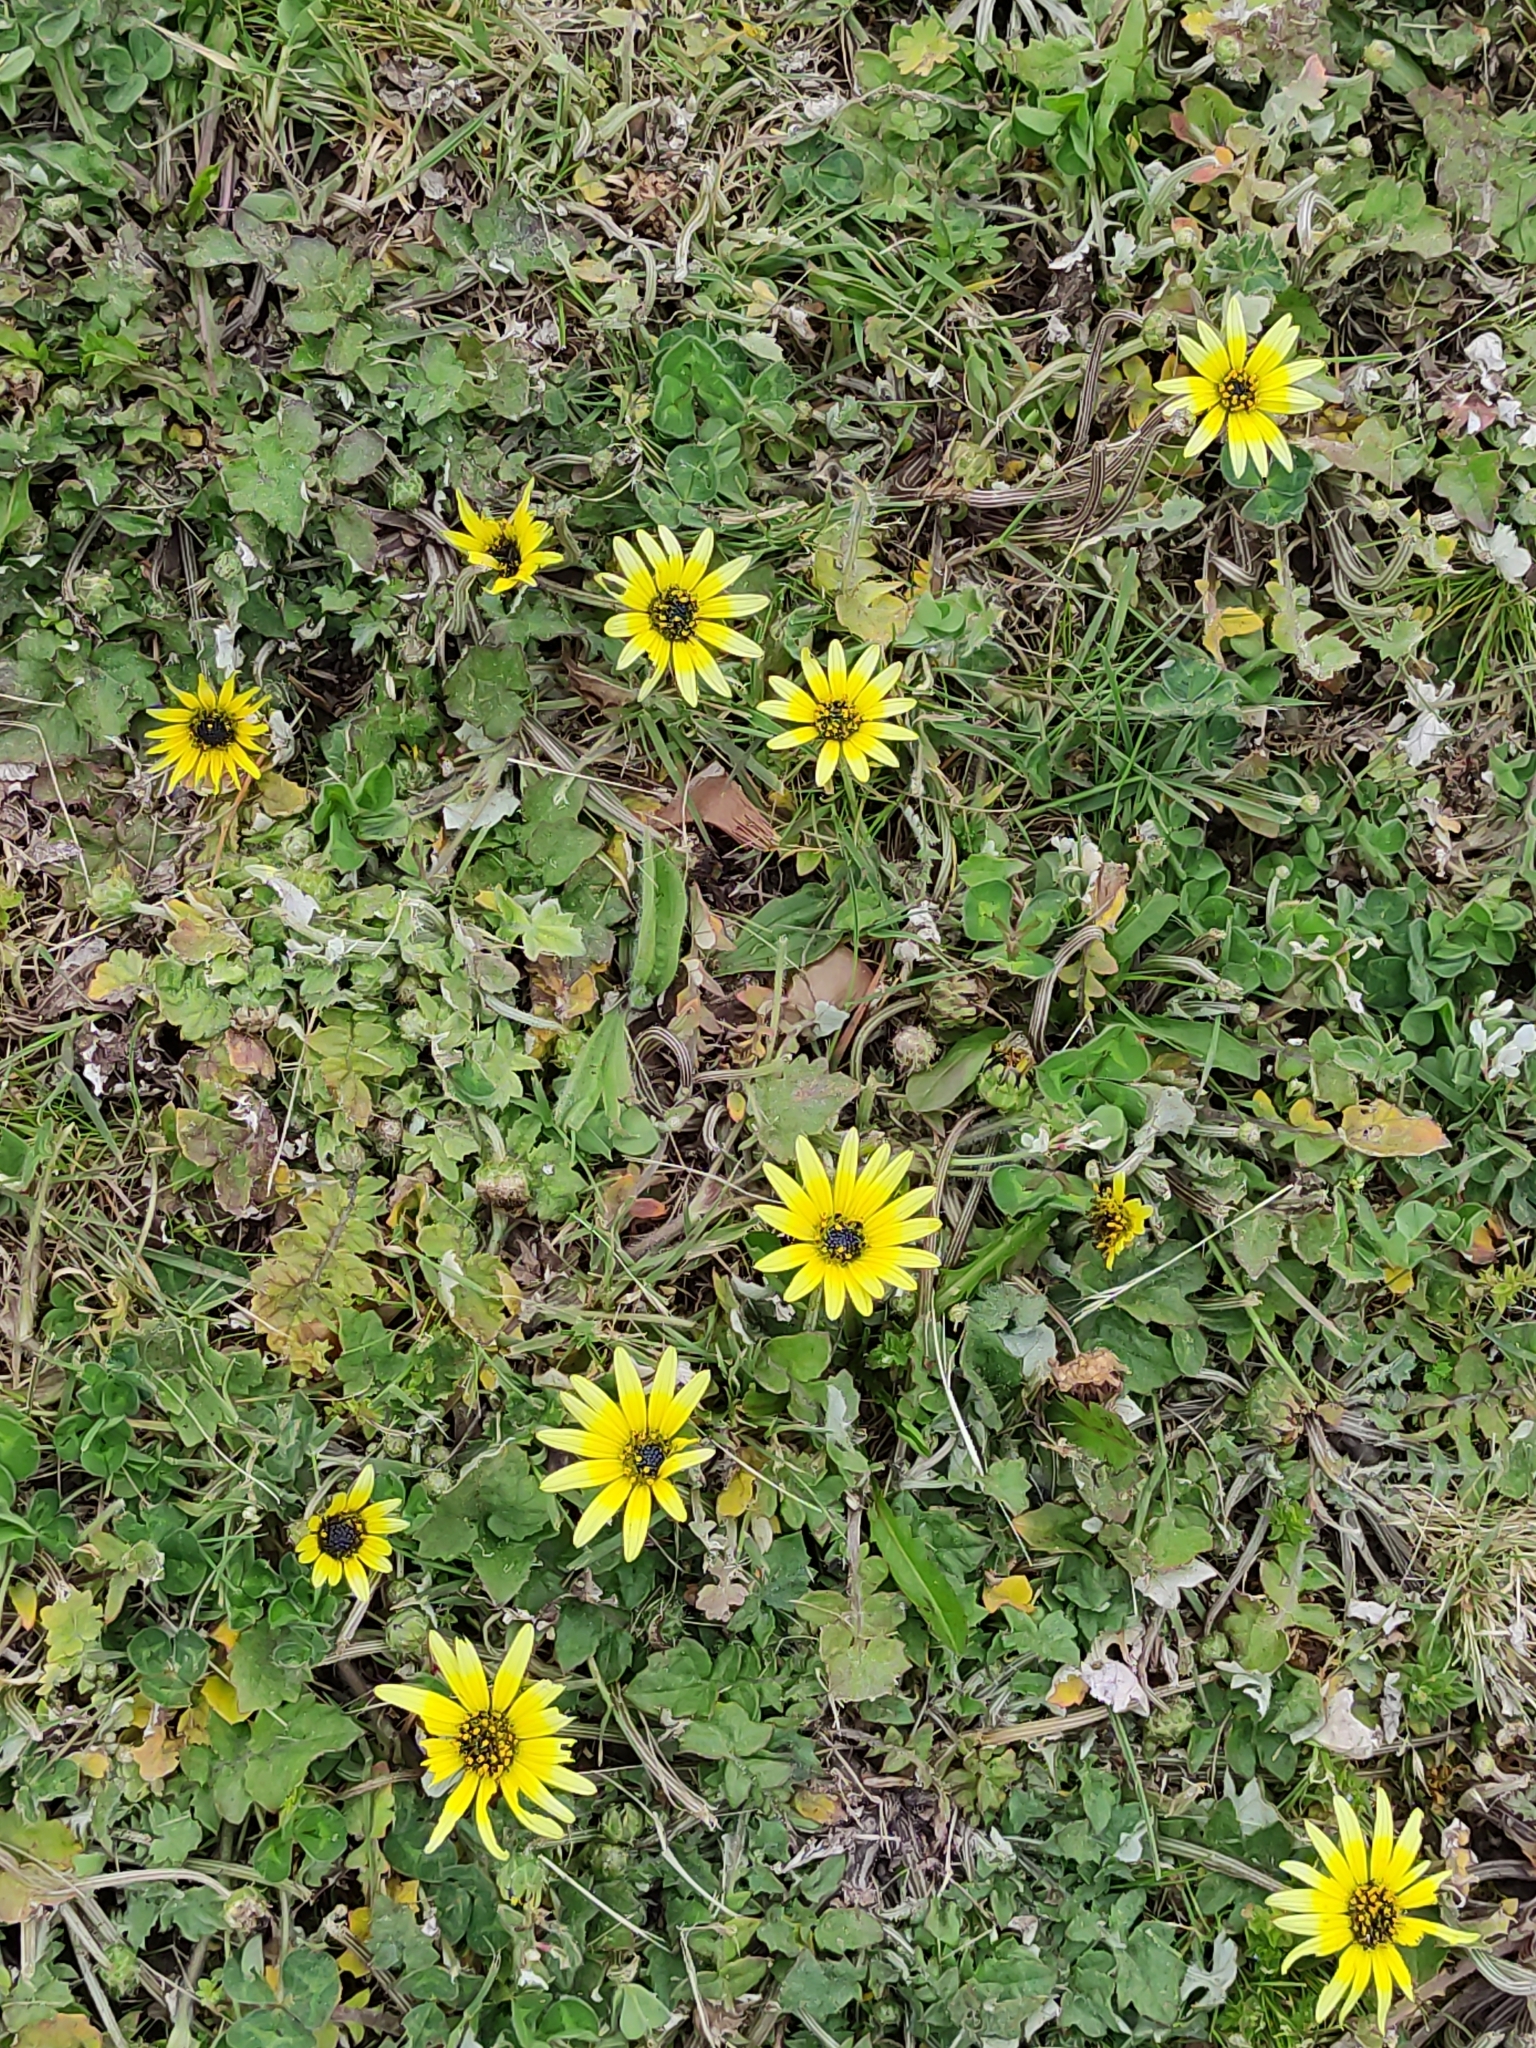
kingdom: Plantae
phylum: Tracheophyta
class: Magnoliopsida
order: Asterales
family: Asteraceae
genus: Arctotheca
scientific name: Arctotheca calendula
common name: Capeweed
